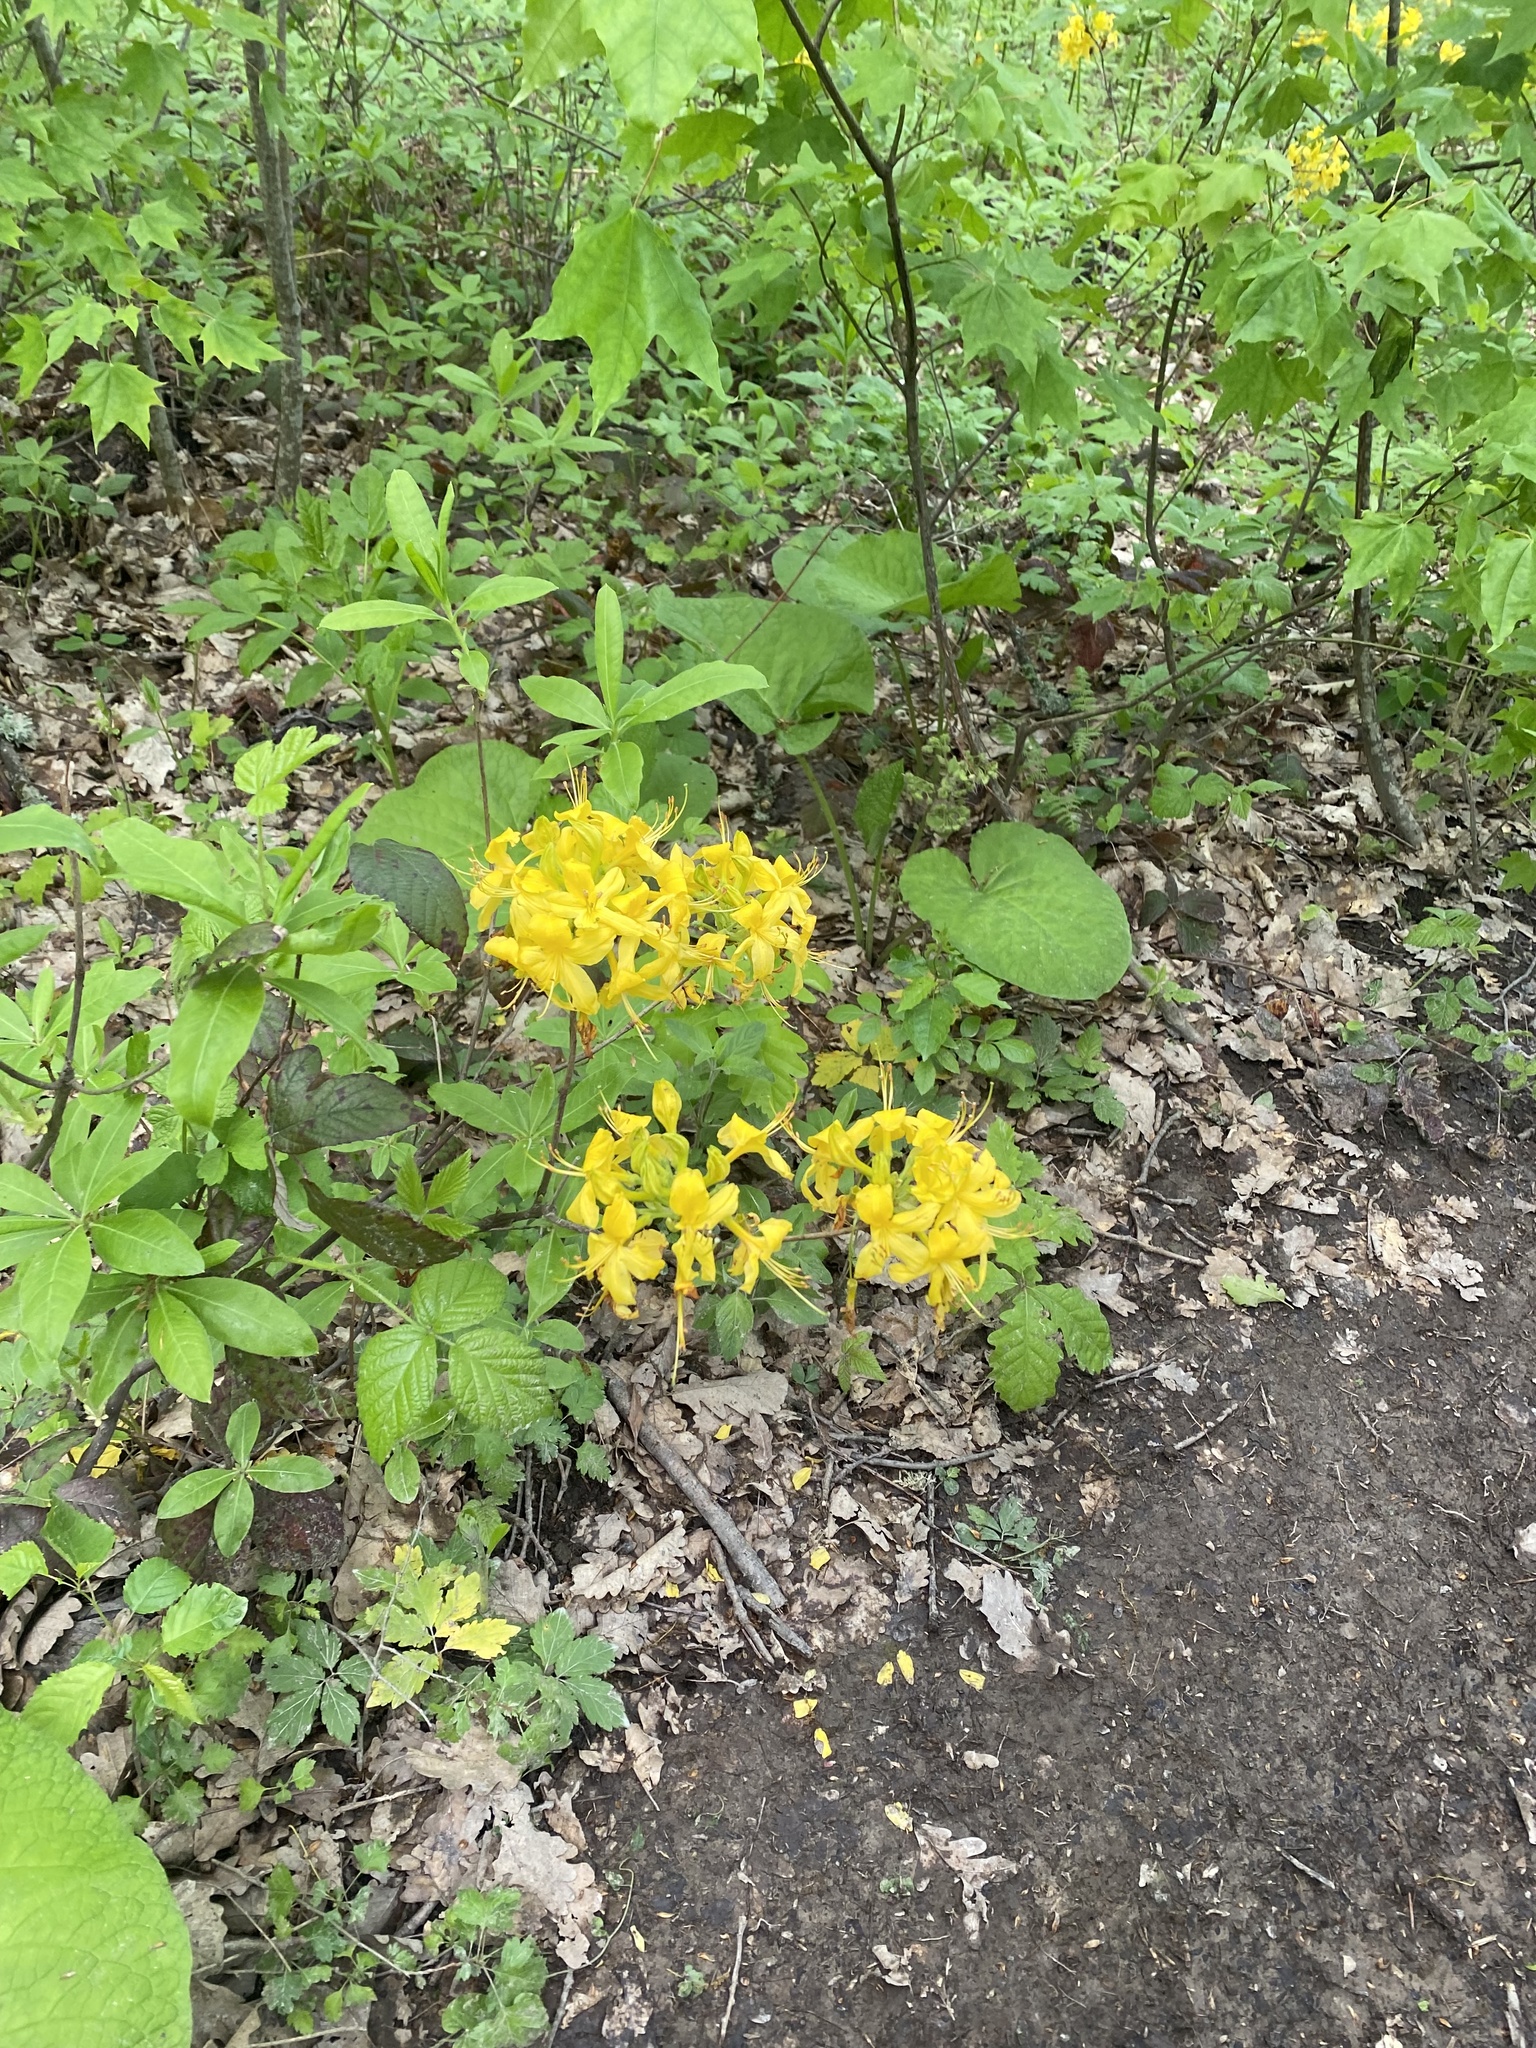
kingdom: Plantae
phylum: Tracheophyta
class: Magnoliopsida
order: Ericales
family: Ericaceae
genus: Rhododendron
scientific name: Rhododendron luteum
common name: Yellow azalea
